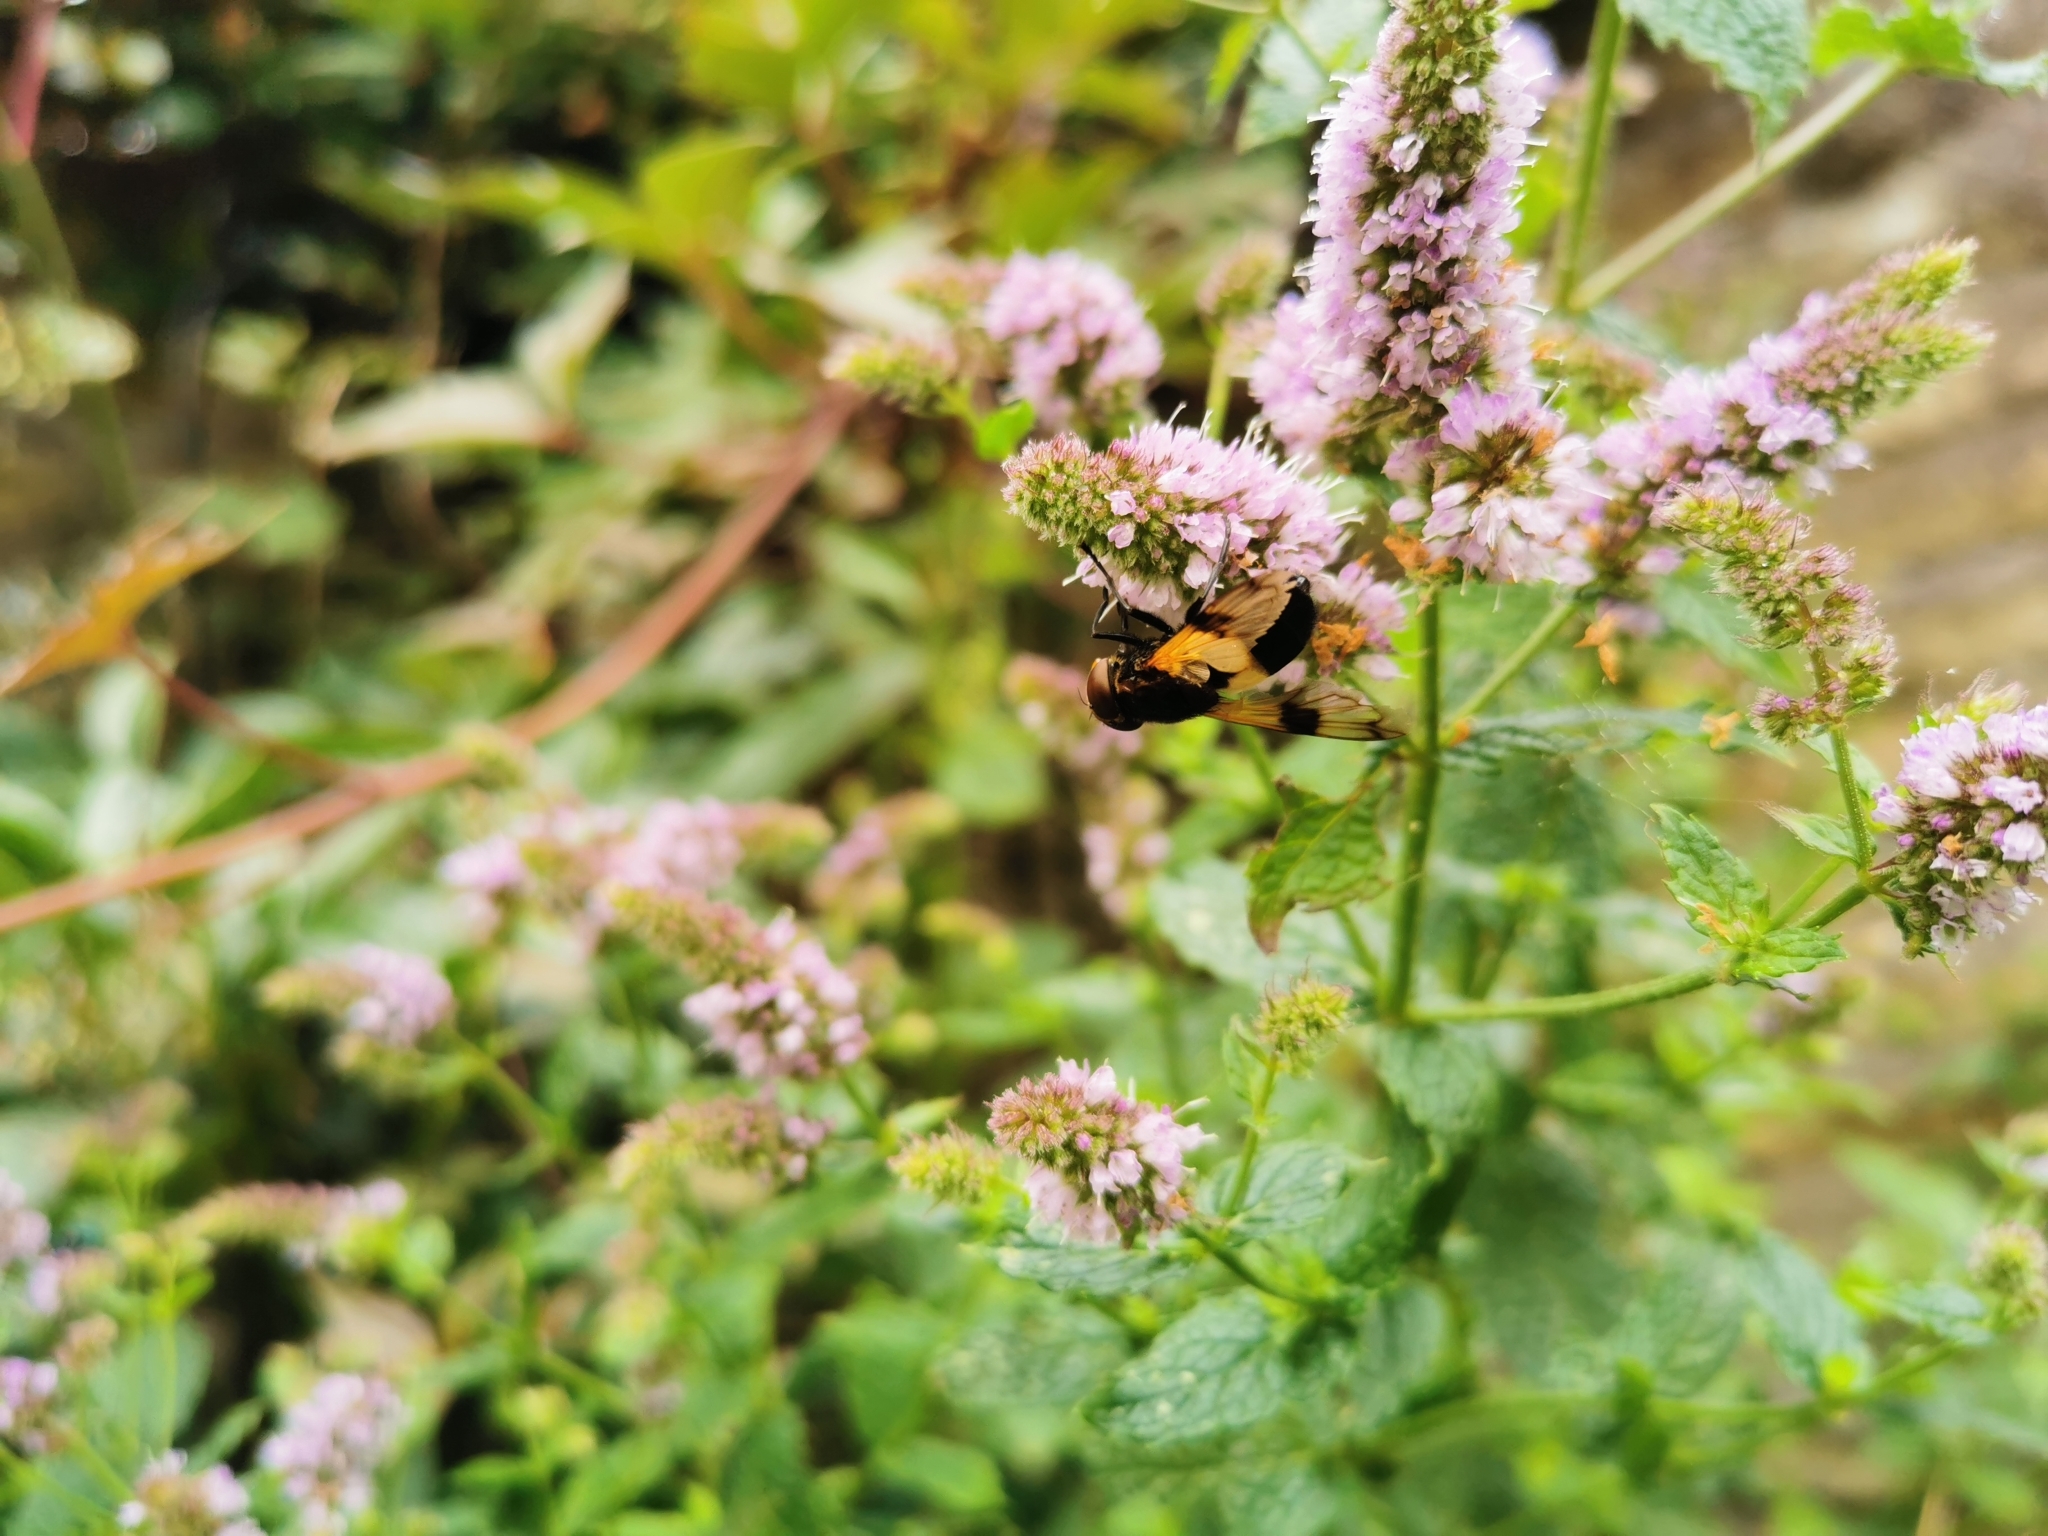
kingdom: Animalia
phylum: Arthropoda
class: Insecta
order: Diptera
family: Syrphidae
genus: Volucella
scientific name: Volucella pellucens
